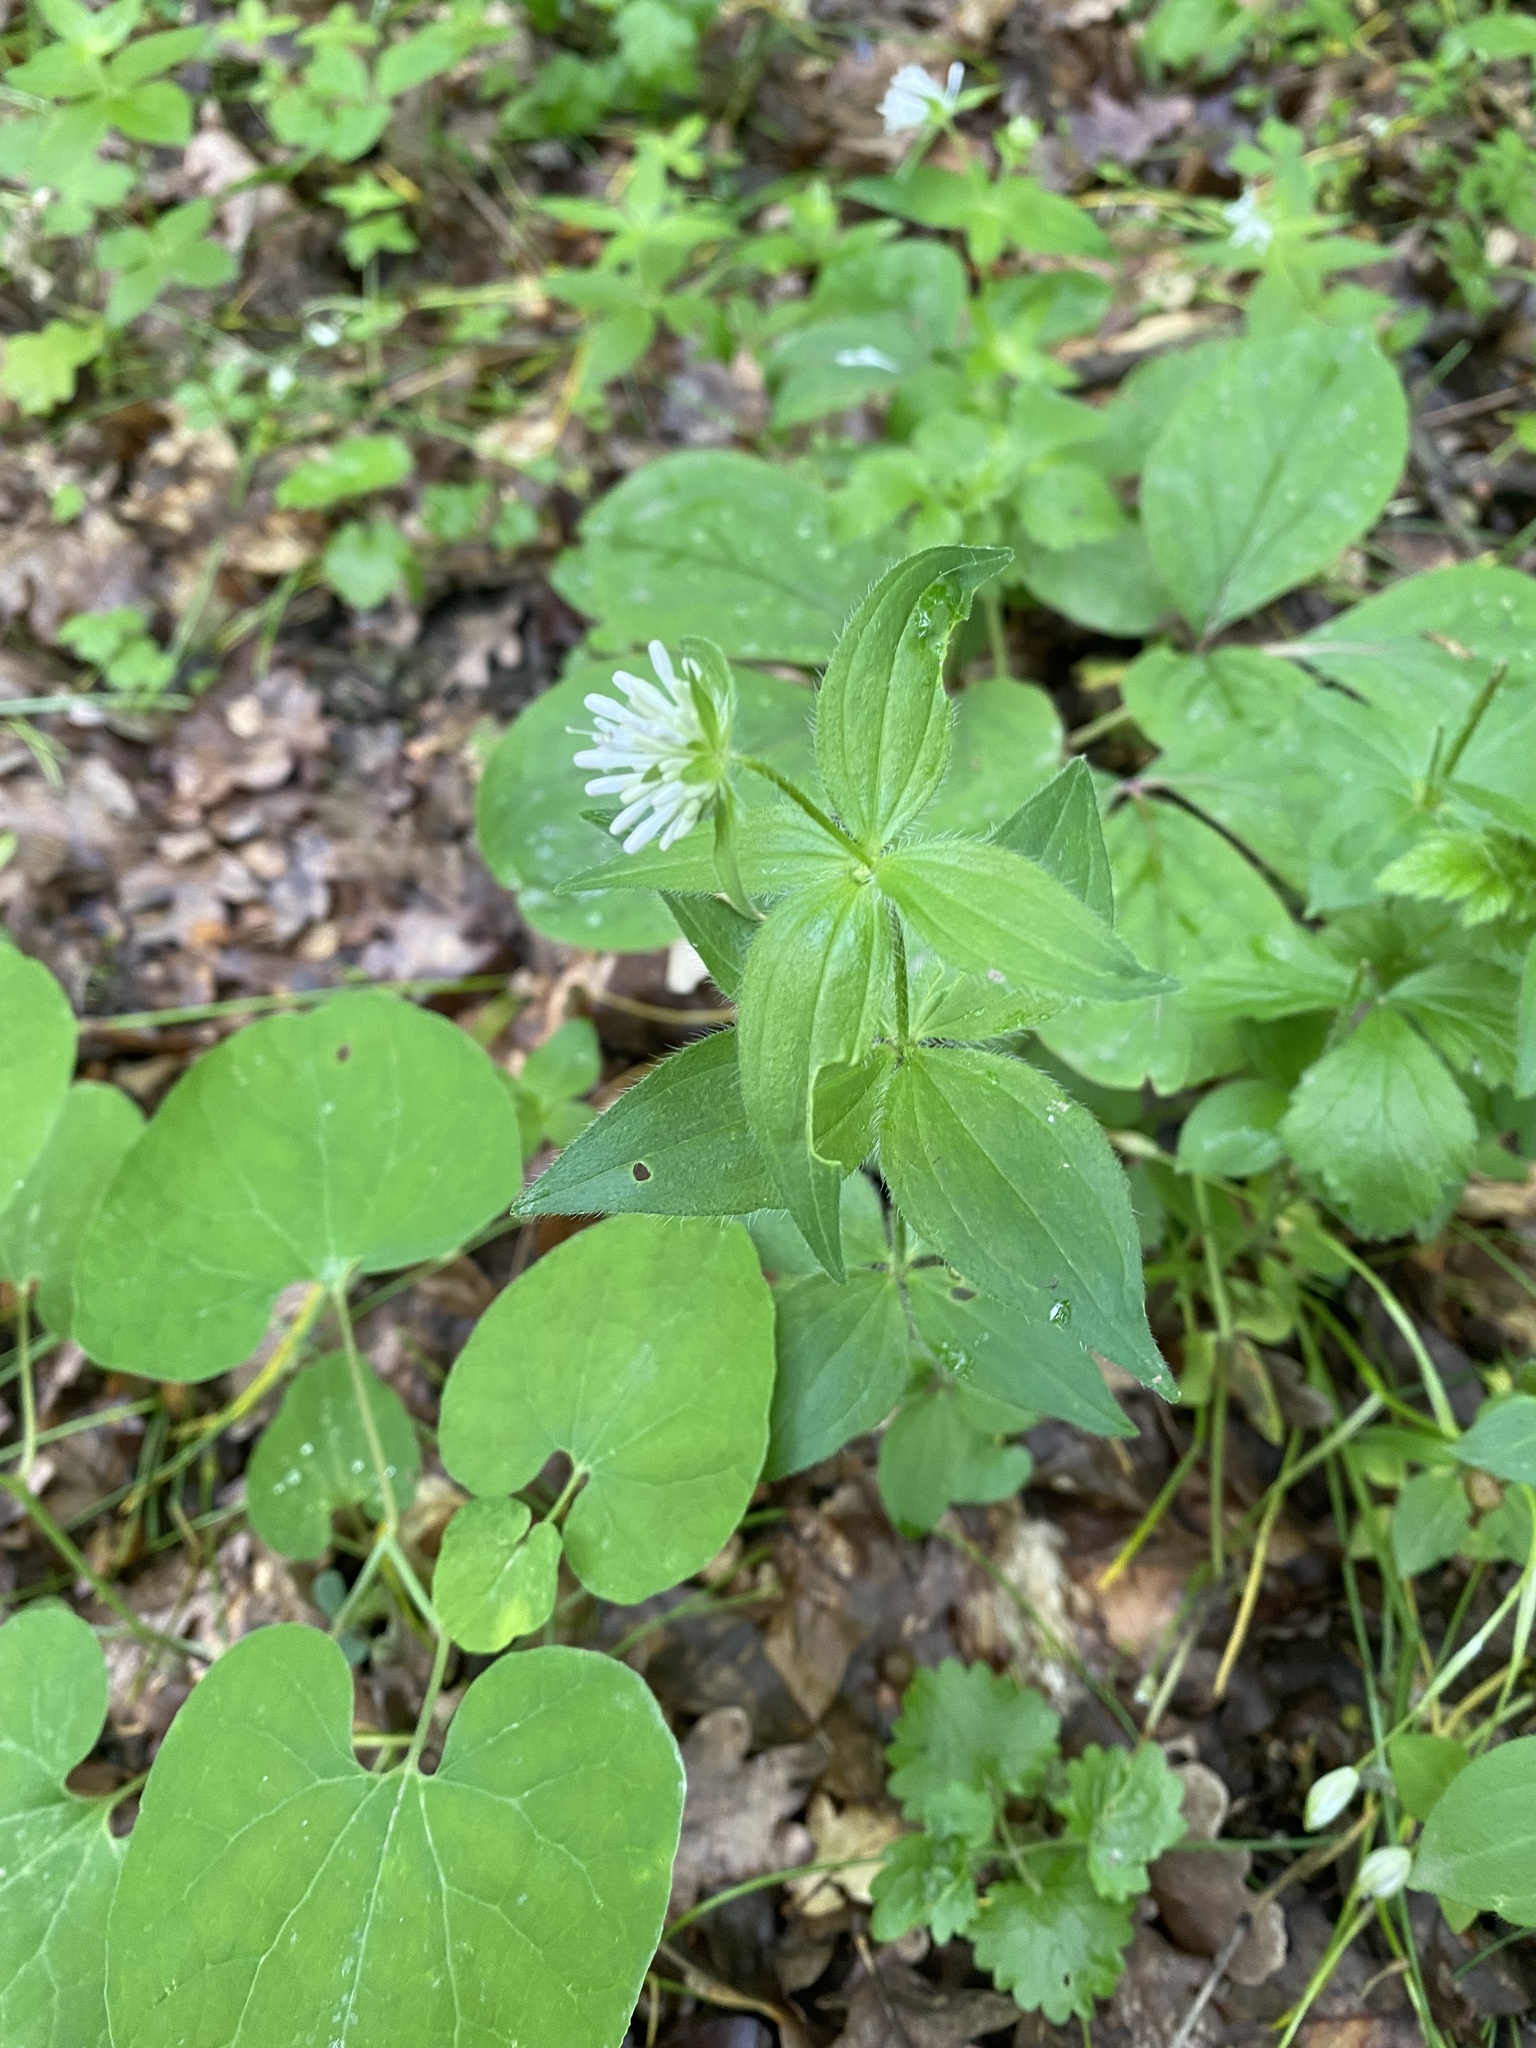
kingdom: Plantae
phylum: Tracheophyta
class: Magnoliopsida
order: Gentianales
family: Rubiaceae
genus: Asperula
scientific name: Asperula taurina
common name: Pink woodruff
